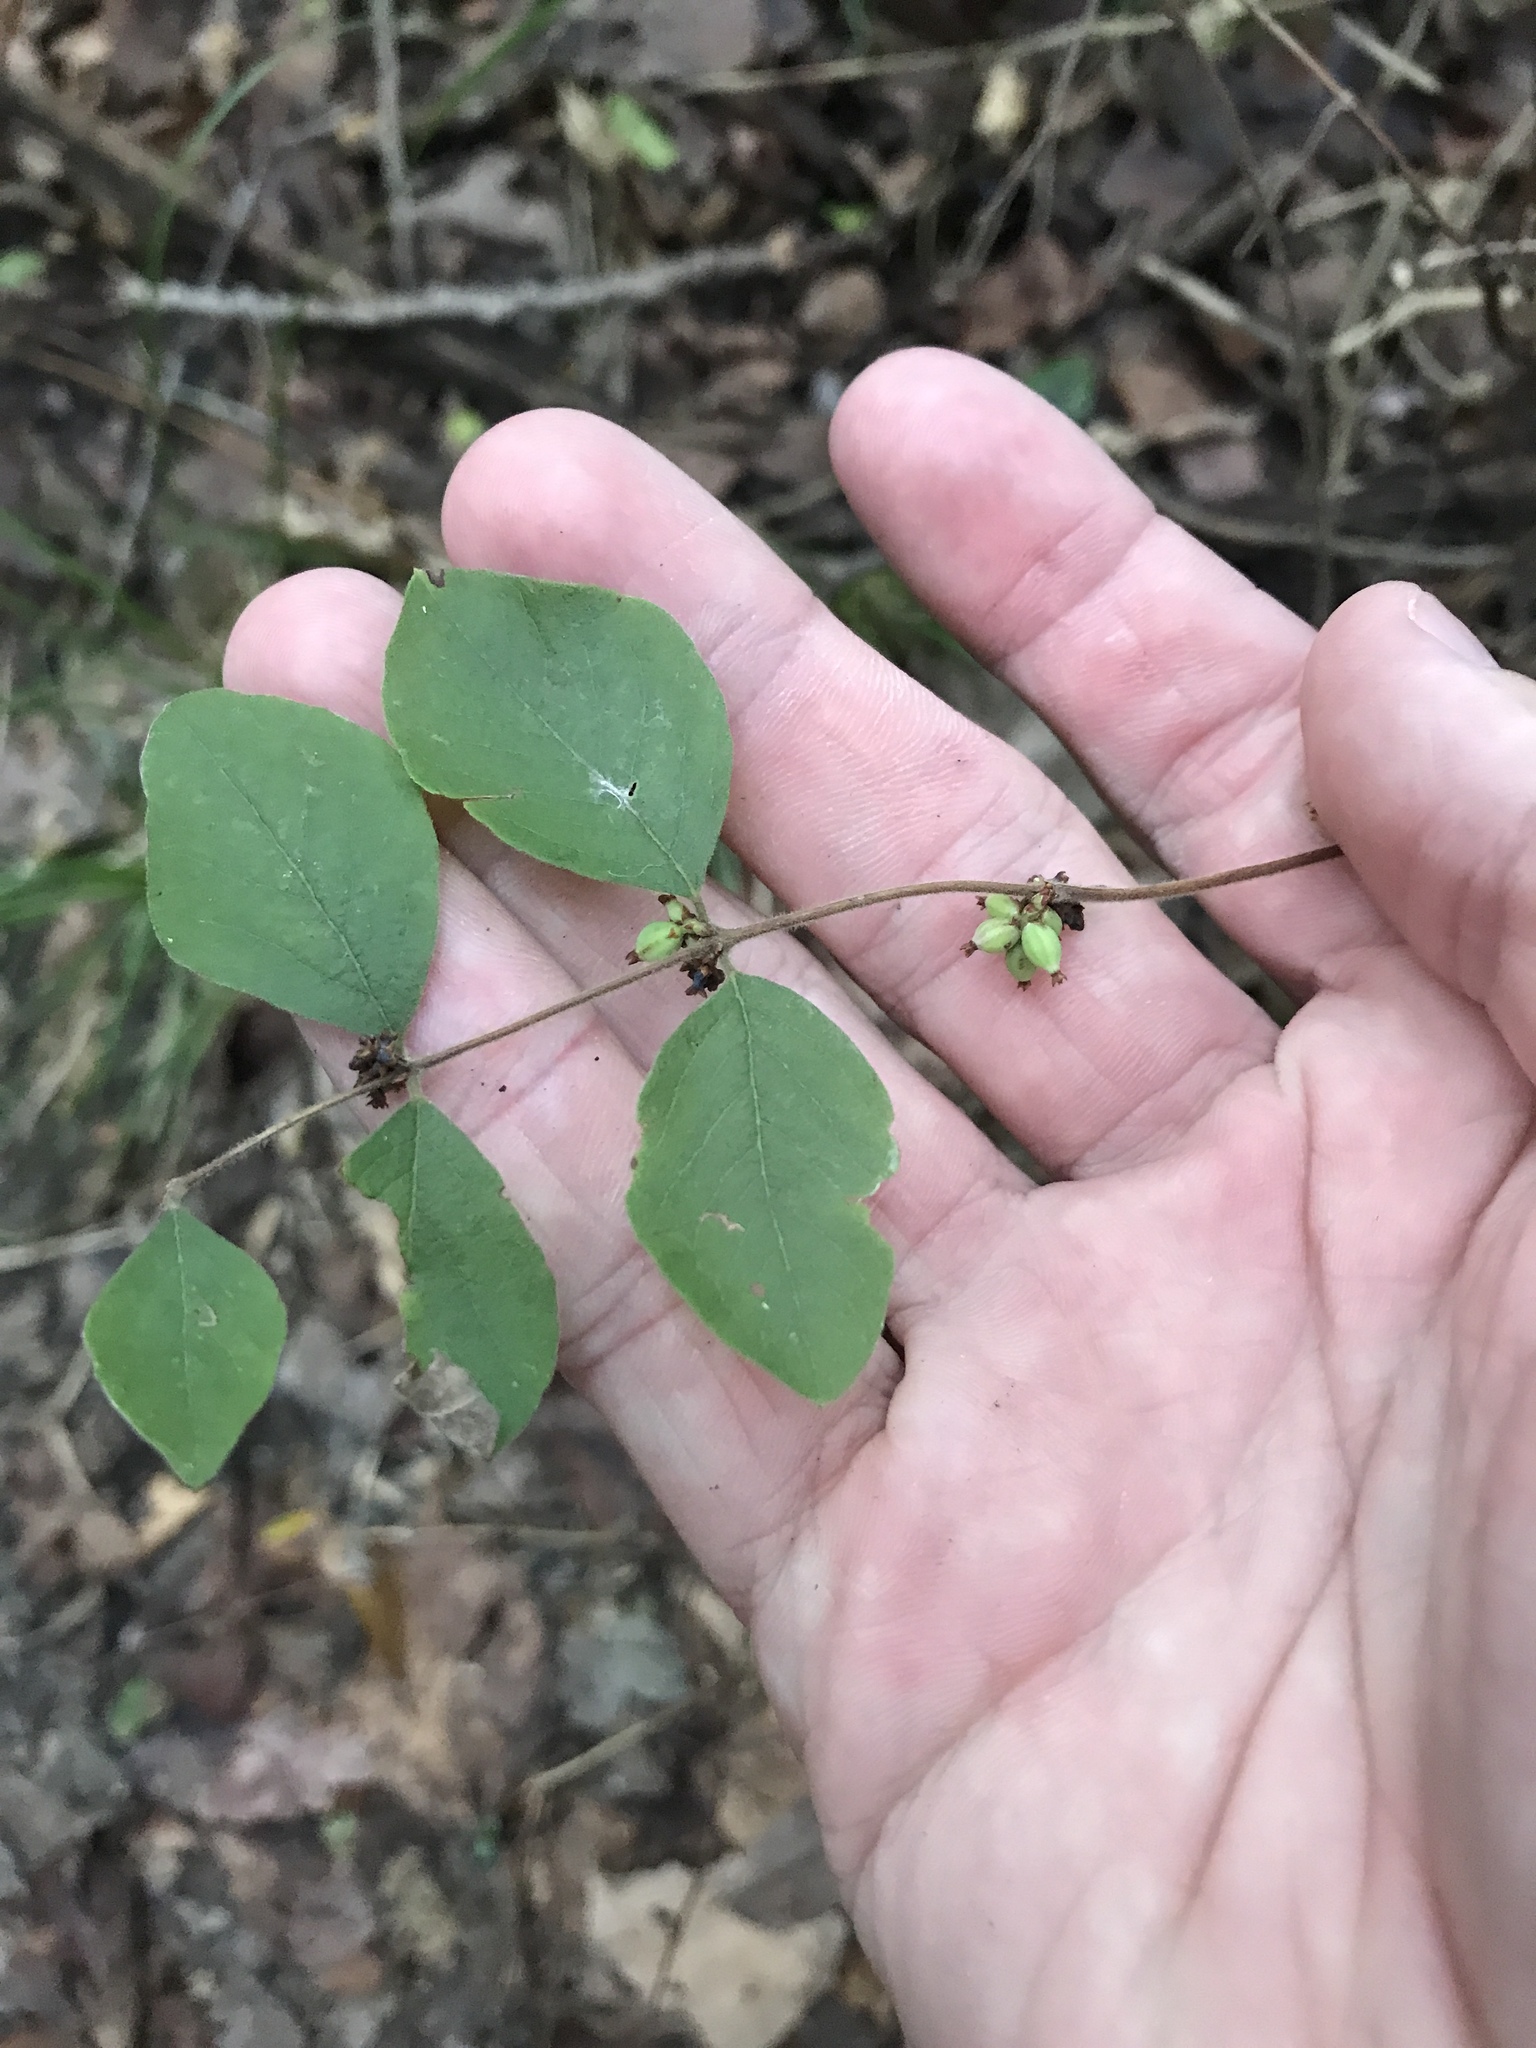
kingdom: Plantae
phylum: Tracheophyta
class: Magnoliopsida
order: Dipsacales
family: Caprifoliaceae
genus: Symphoricarpos
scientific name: Symphoricarpos orbiculatus
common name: Coralberry
